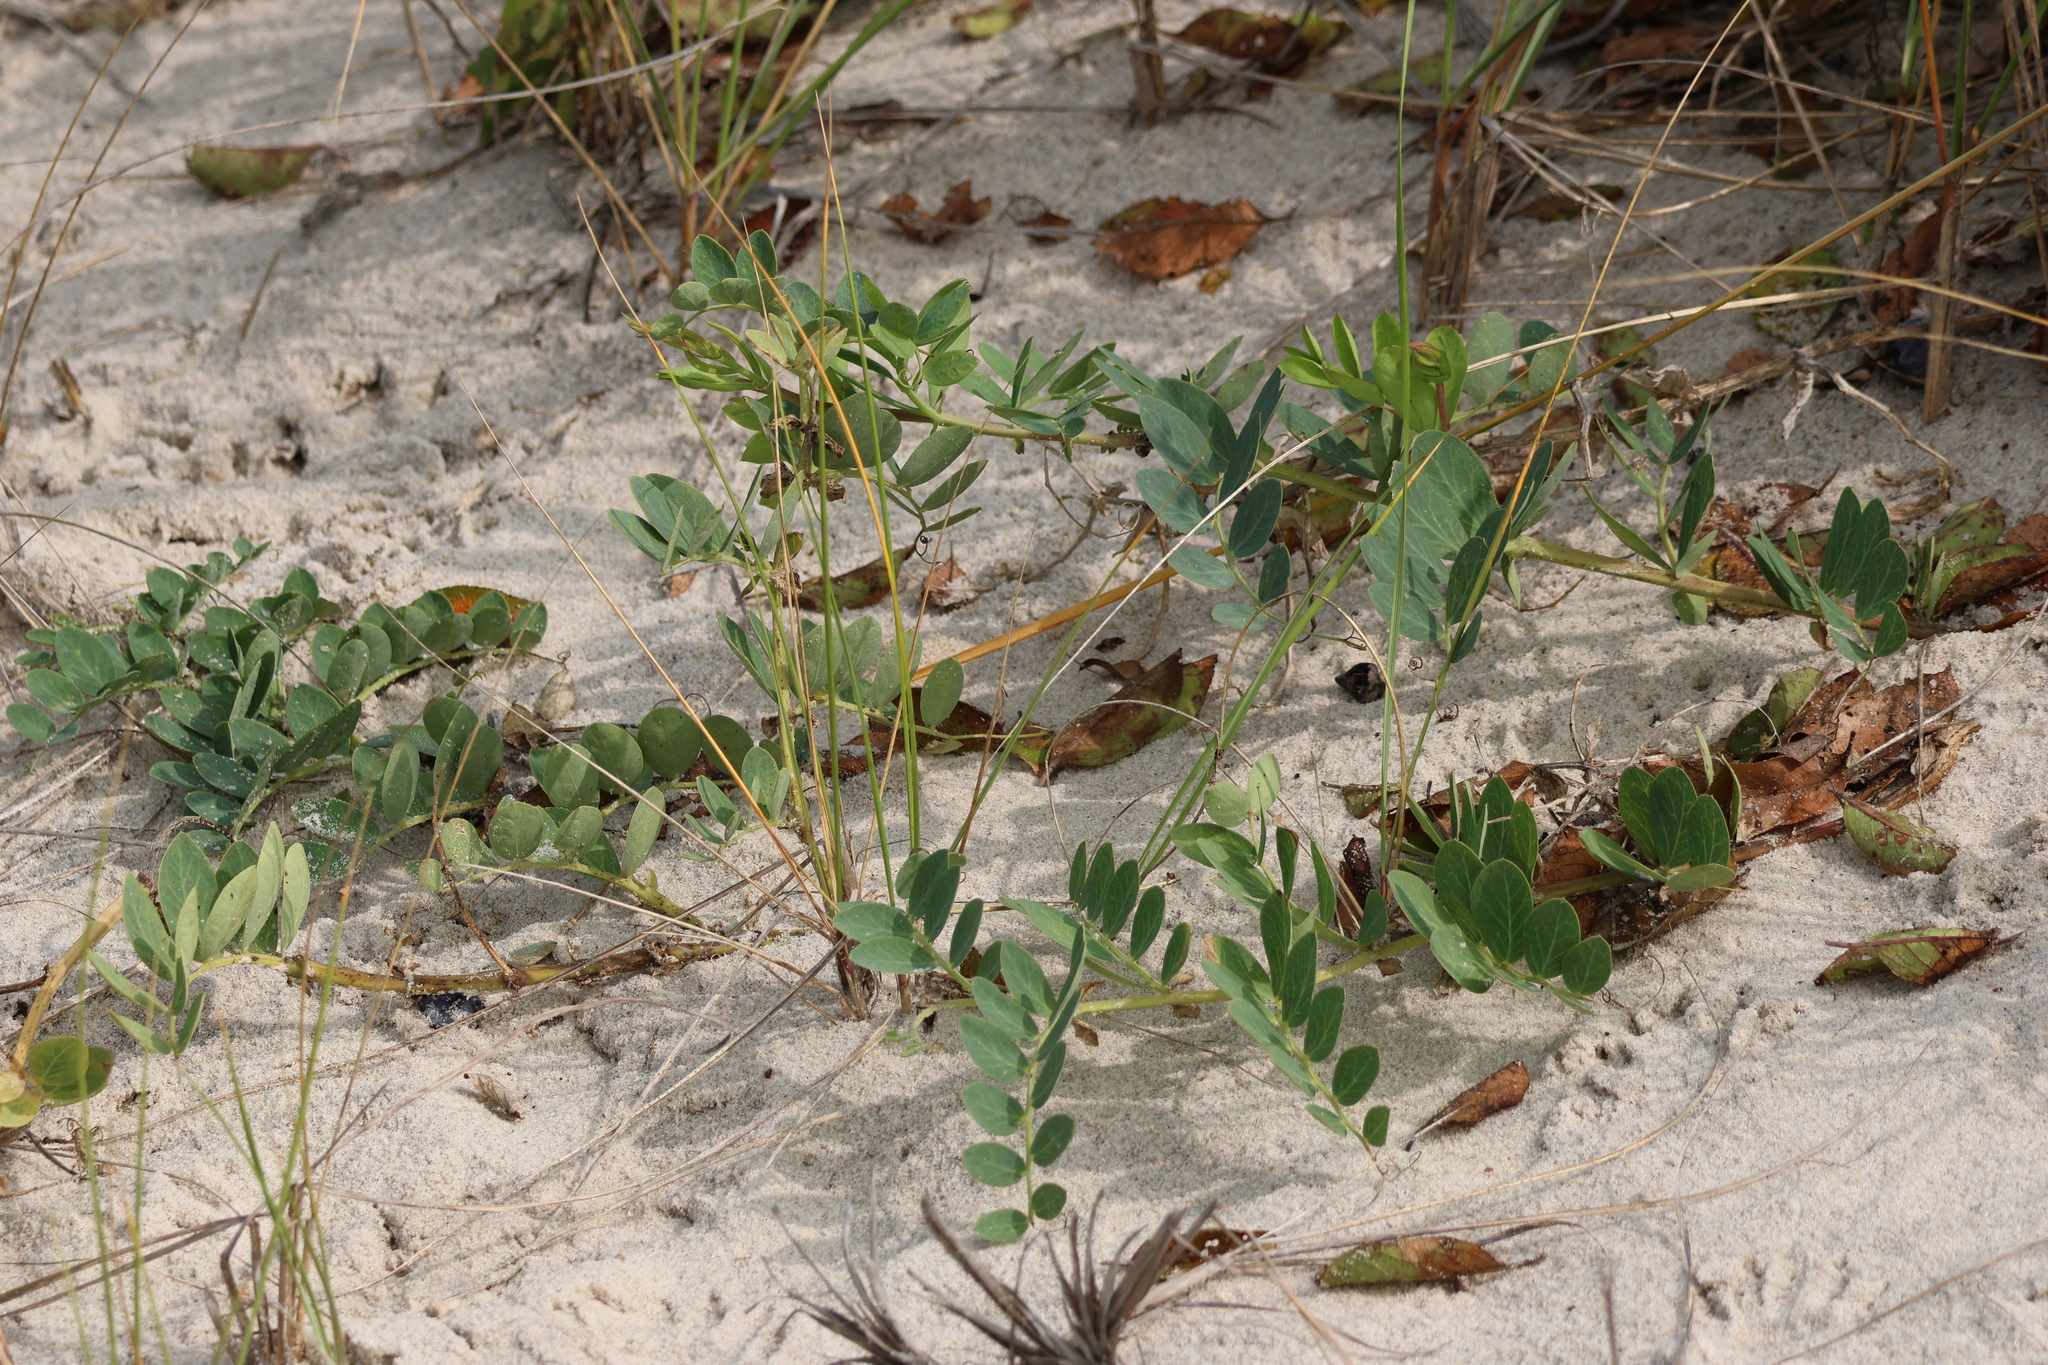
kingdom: Plantae
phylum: Tracheophyta
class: Magnoliopsida
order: Fabales
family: Fabaceae
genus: Lathyrus
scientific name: Lathyrus japonicus
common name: Sea pea
